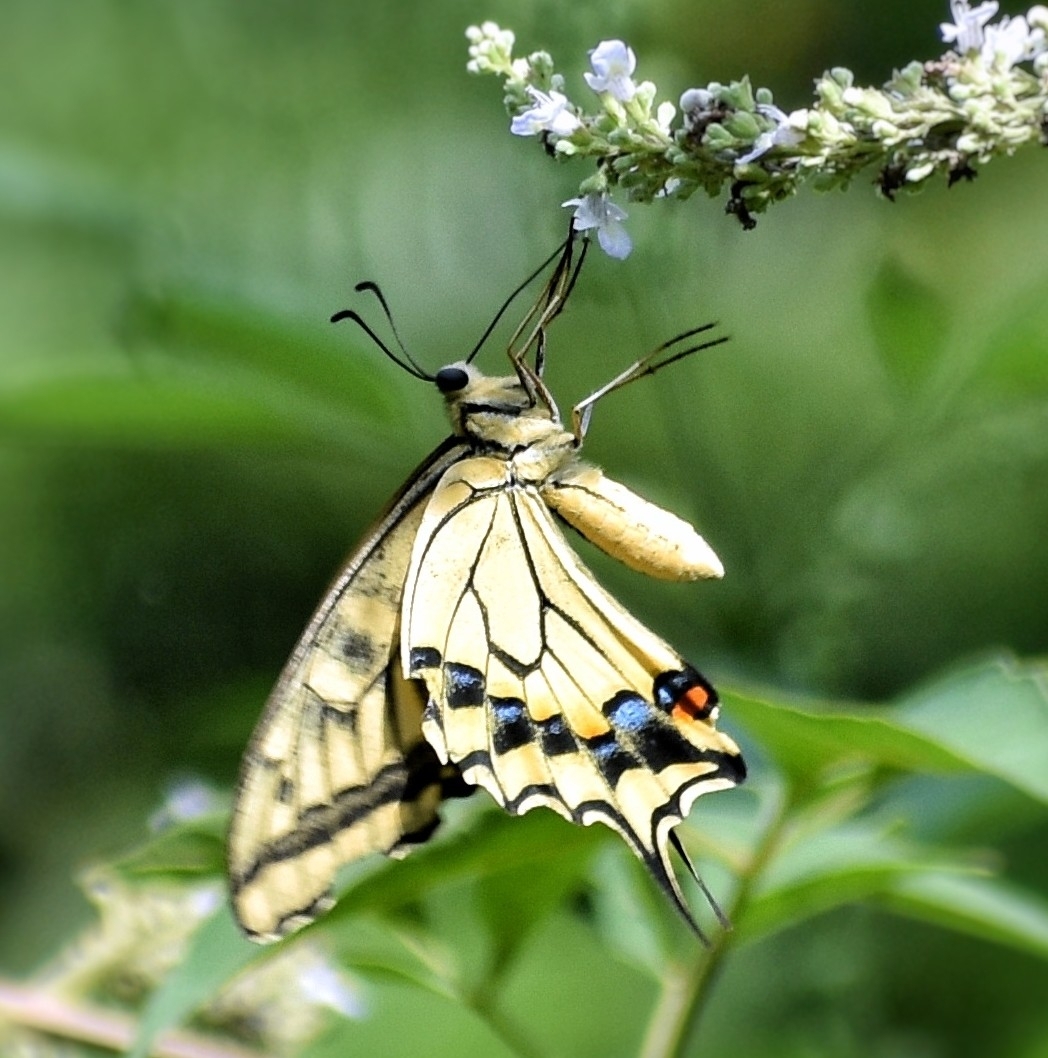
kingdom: Animalia
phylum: Arthropoda
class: Insecta
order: Lepidoptera
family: Papilionidae
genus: Papilio
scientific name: Papilio machaon
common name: Swallowtail
